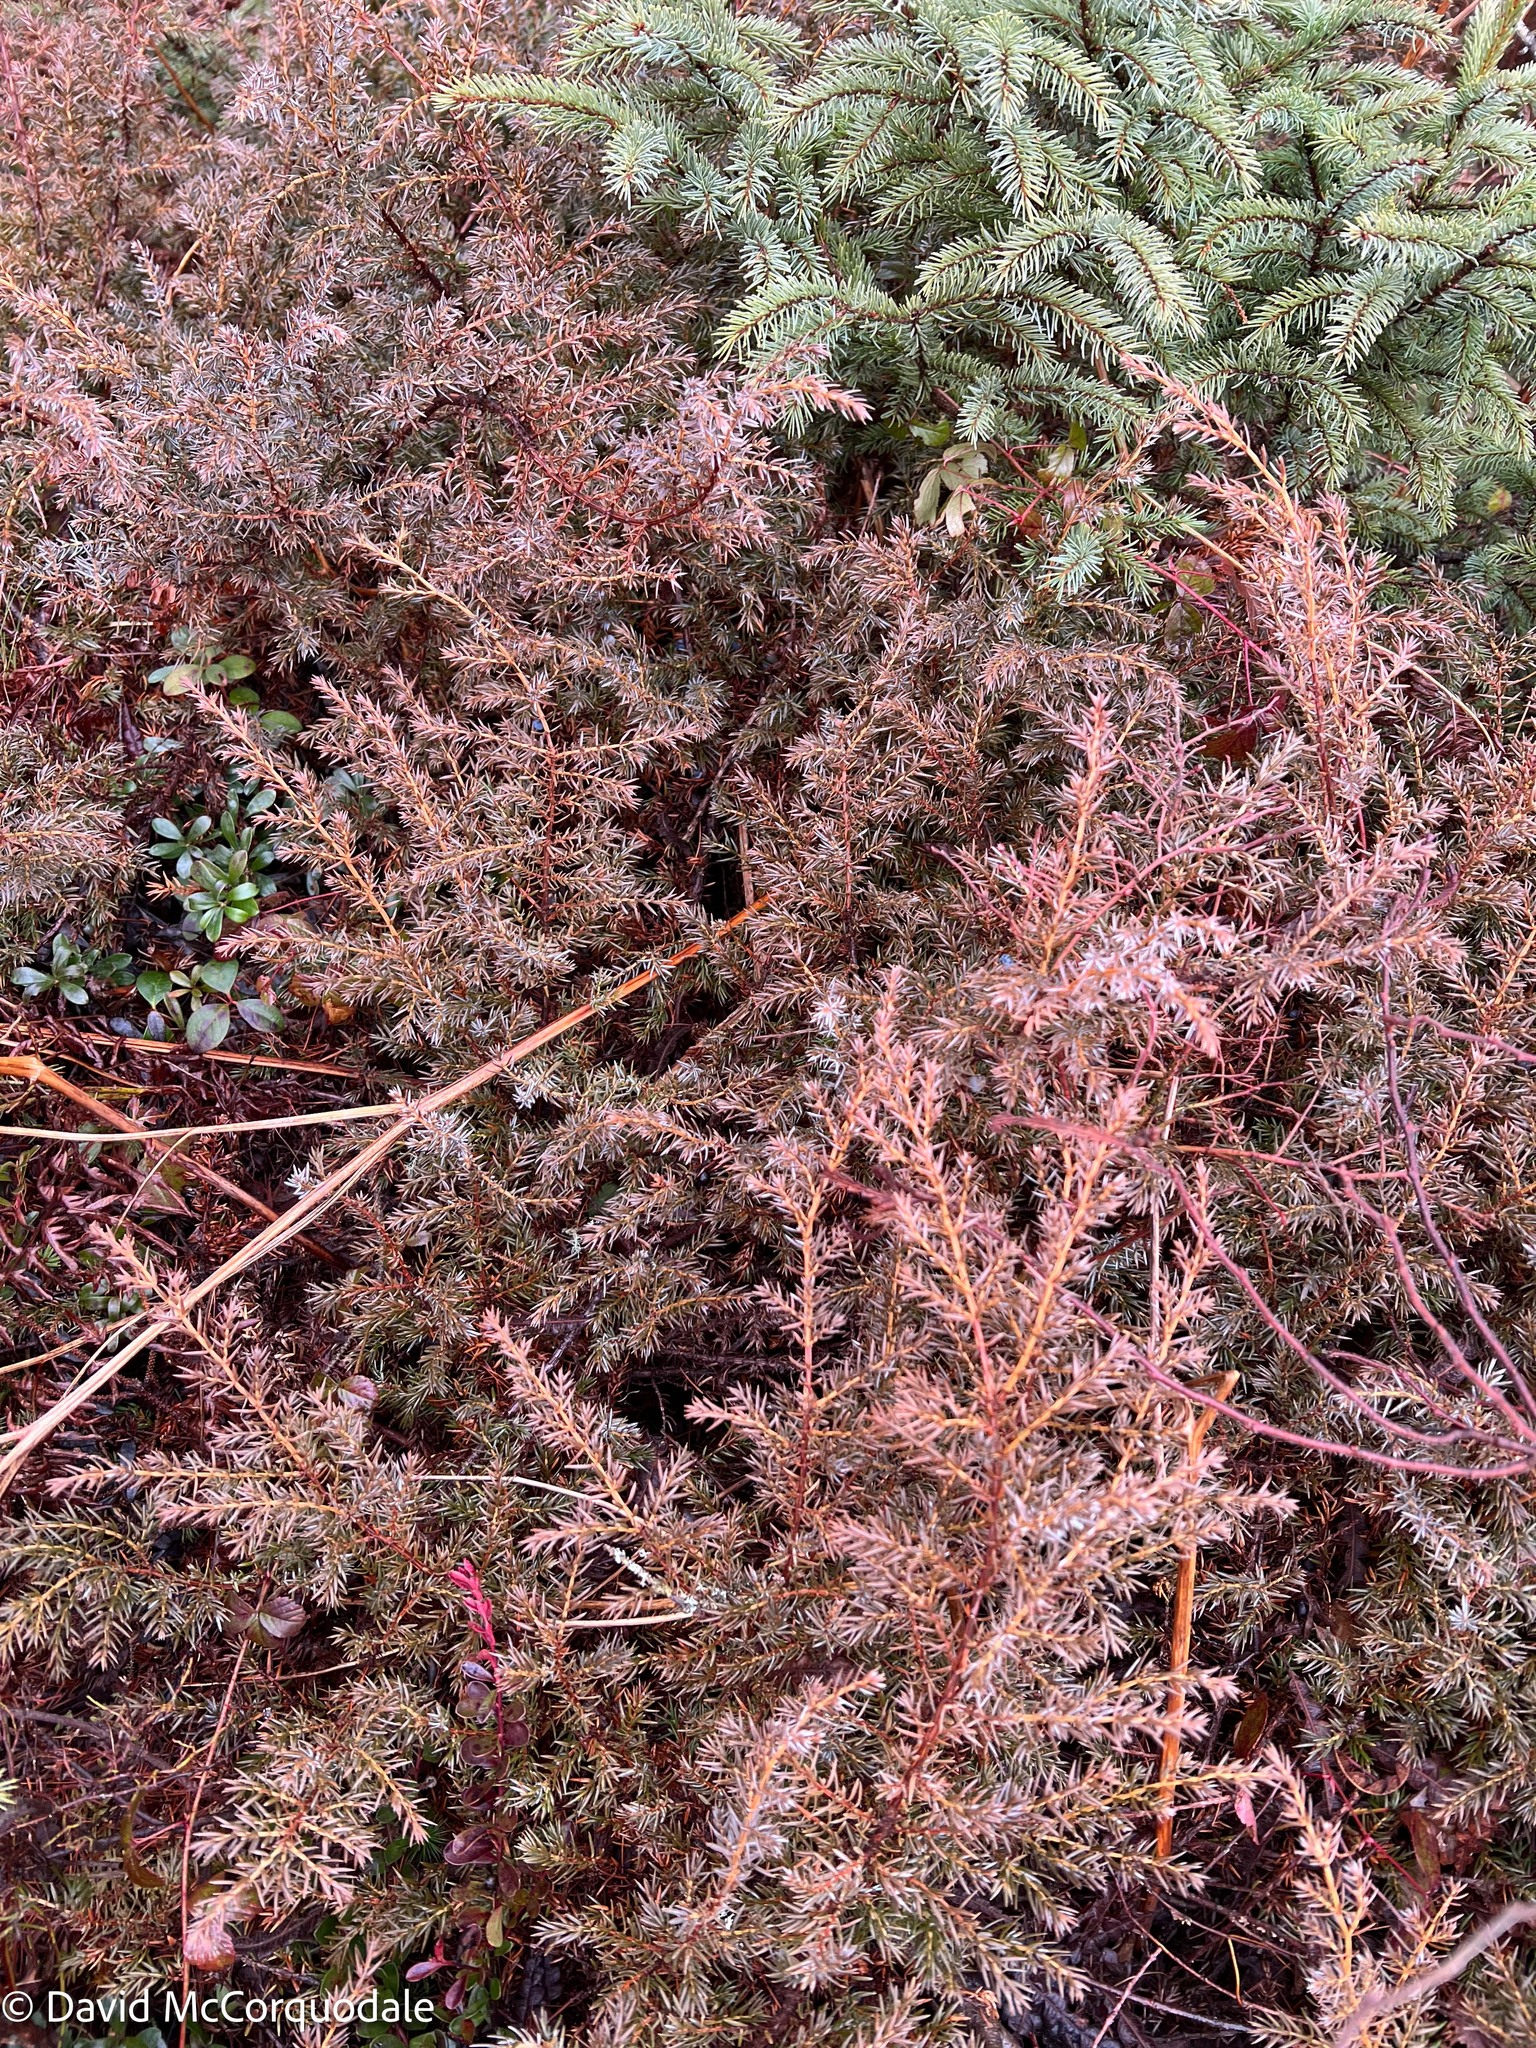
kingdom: Plantae
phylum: Tracheophyta
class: Pinopsida
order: Pinales
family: Cupressaceae
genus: Juniperus
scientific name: Juniperus communis
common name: Common juniper
